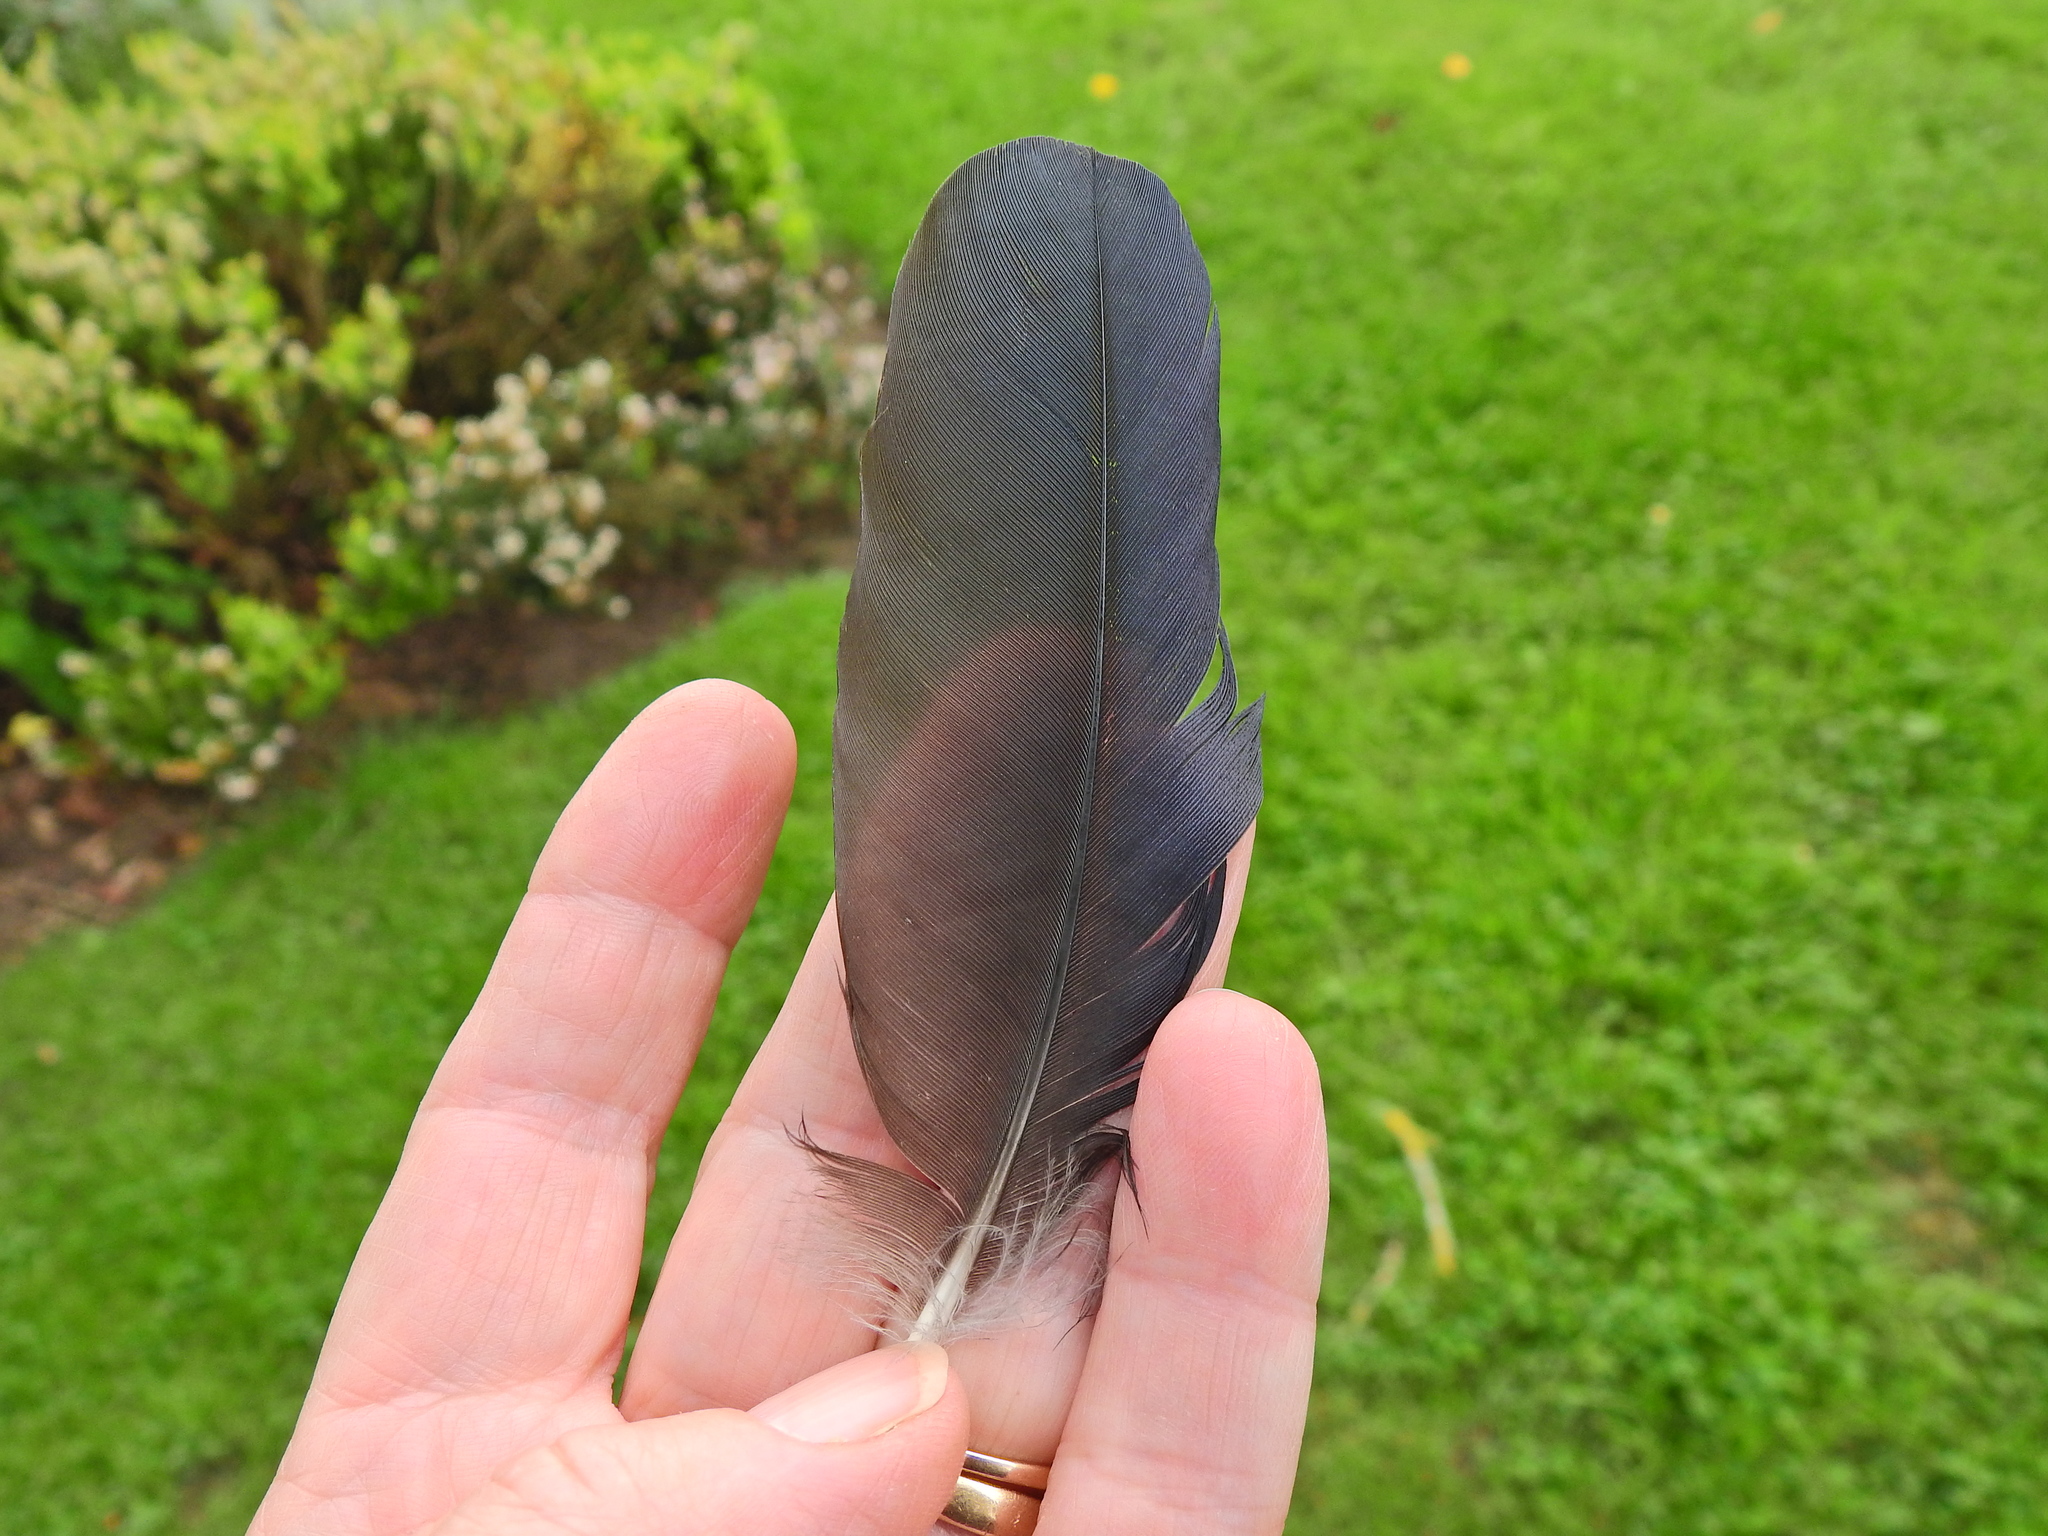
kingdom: Animalia
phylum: Chordata
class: Aves
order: Passeriformes
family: Corvidae
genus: Coloeus
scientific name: Coloeus monedula
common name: Western jackdaw
